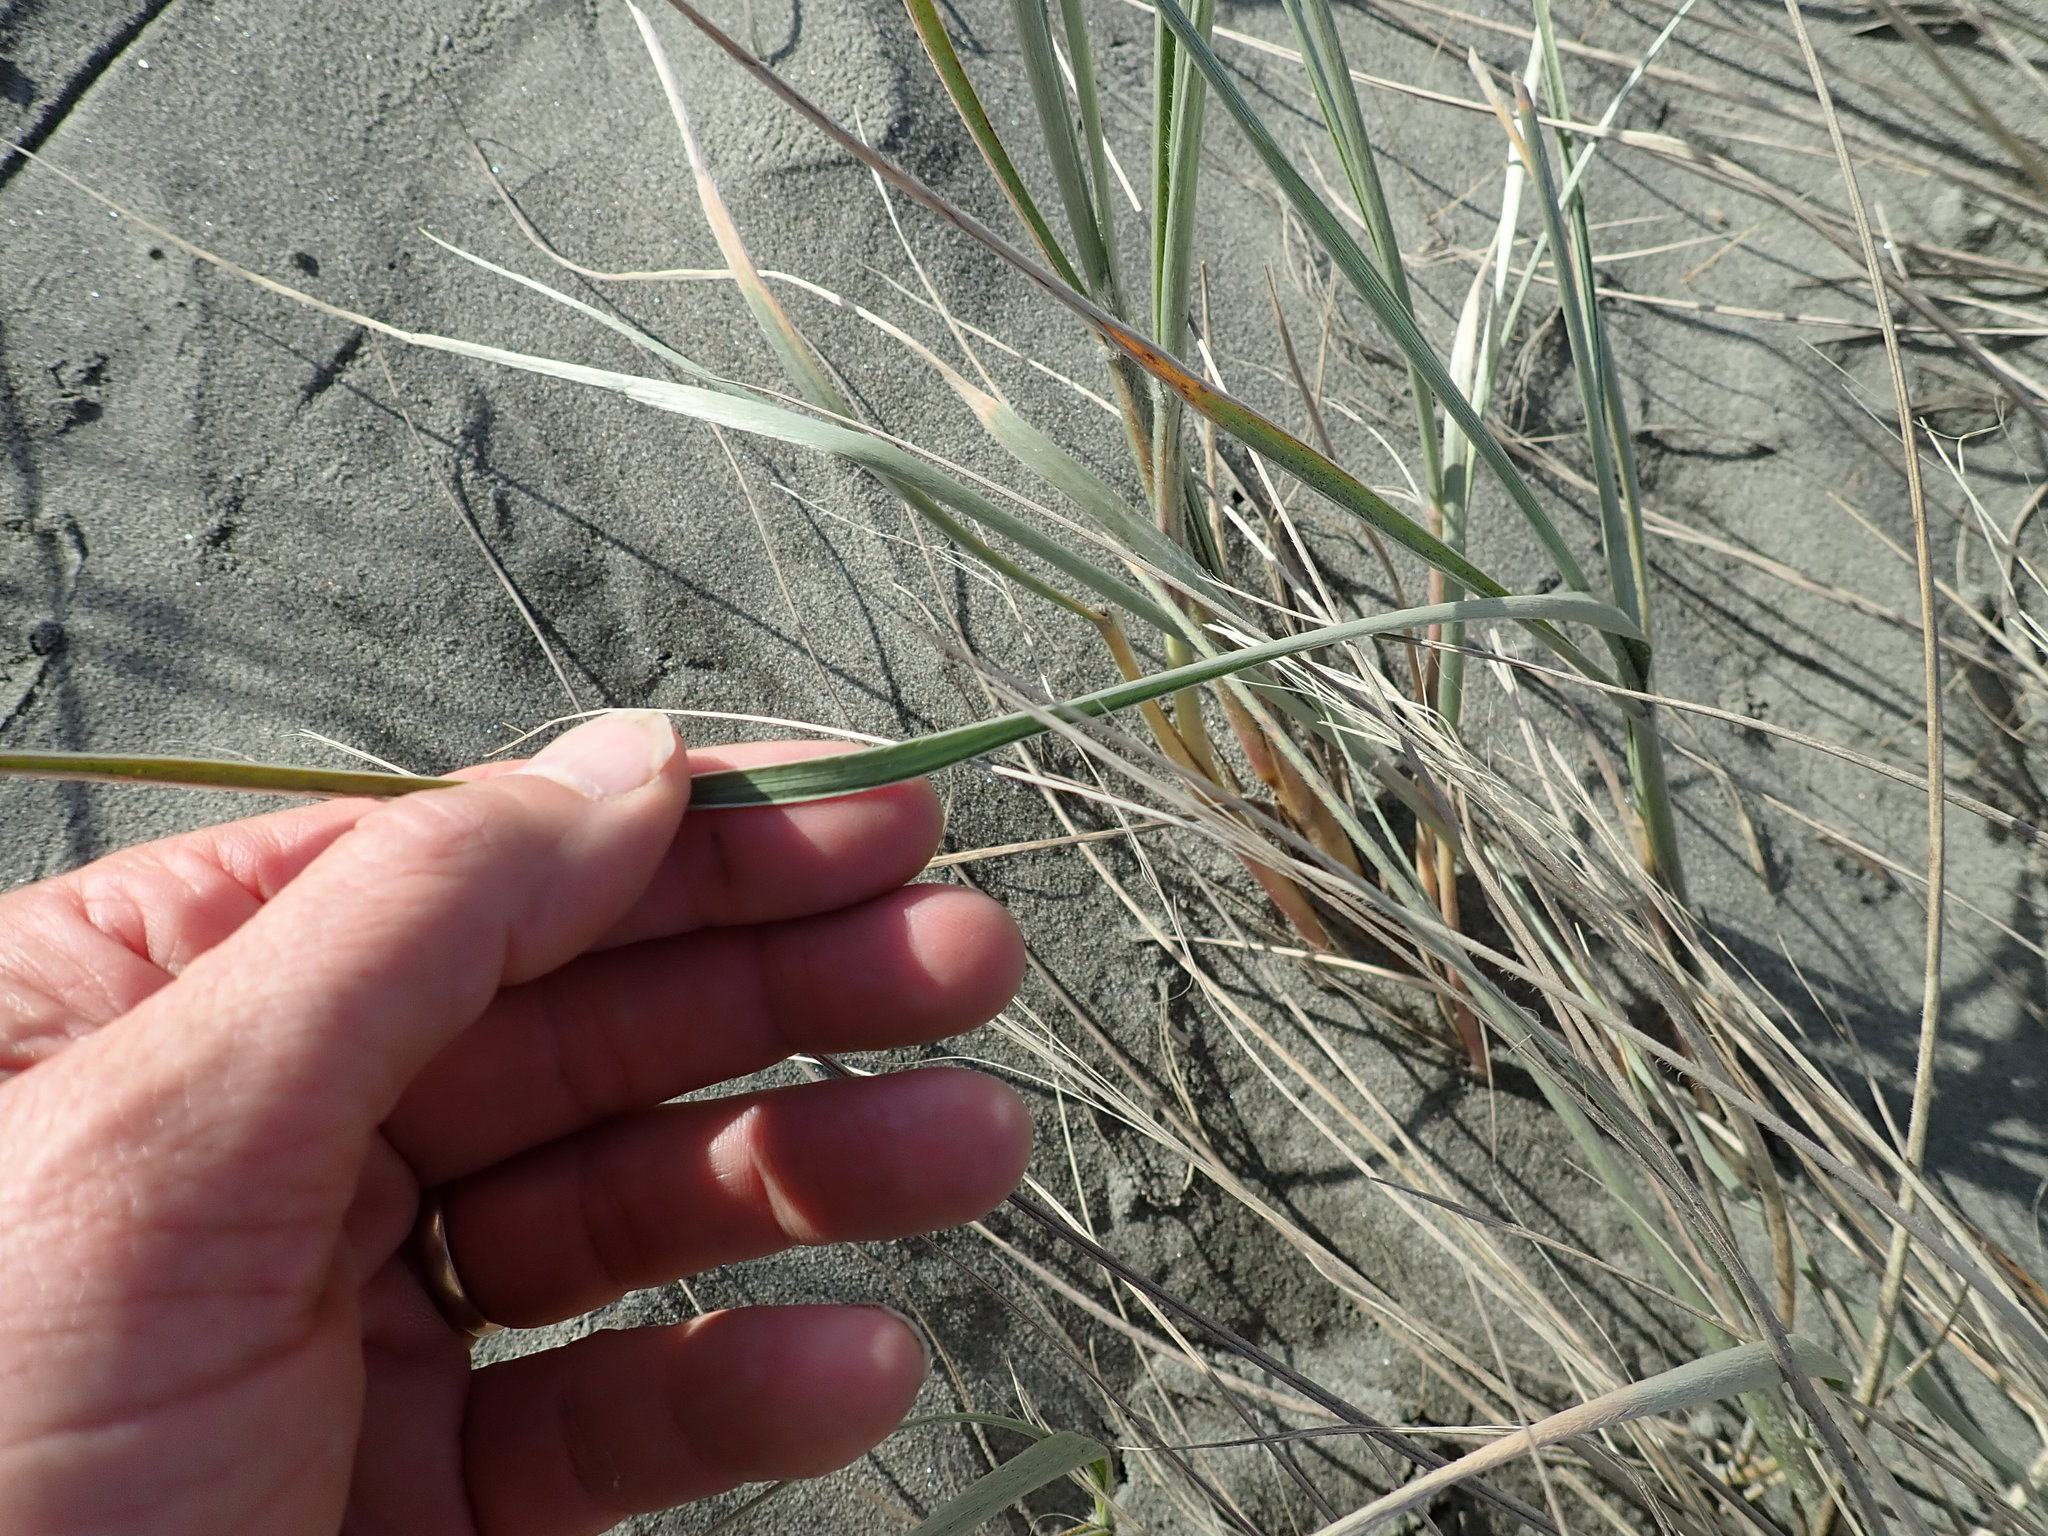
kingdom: Plantae
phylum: Tracheophyta
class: Liliopsida
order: Poales
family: Poaceae
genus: Spinifex
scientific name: Spinifex sericeus
